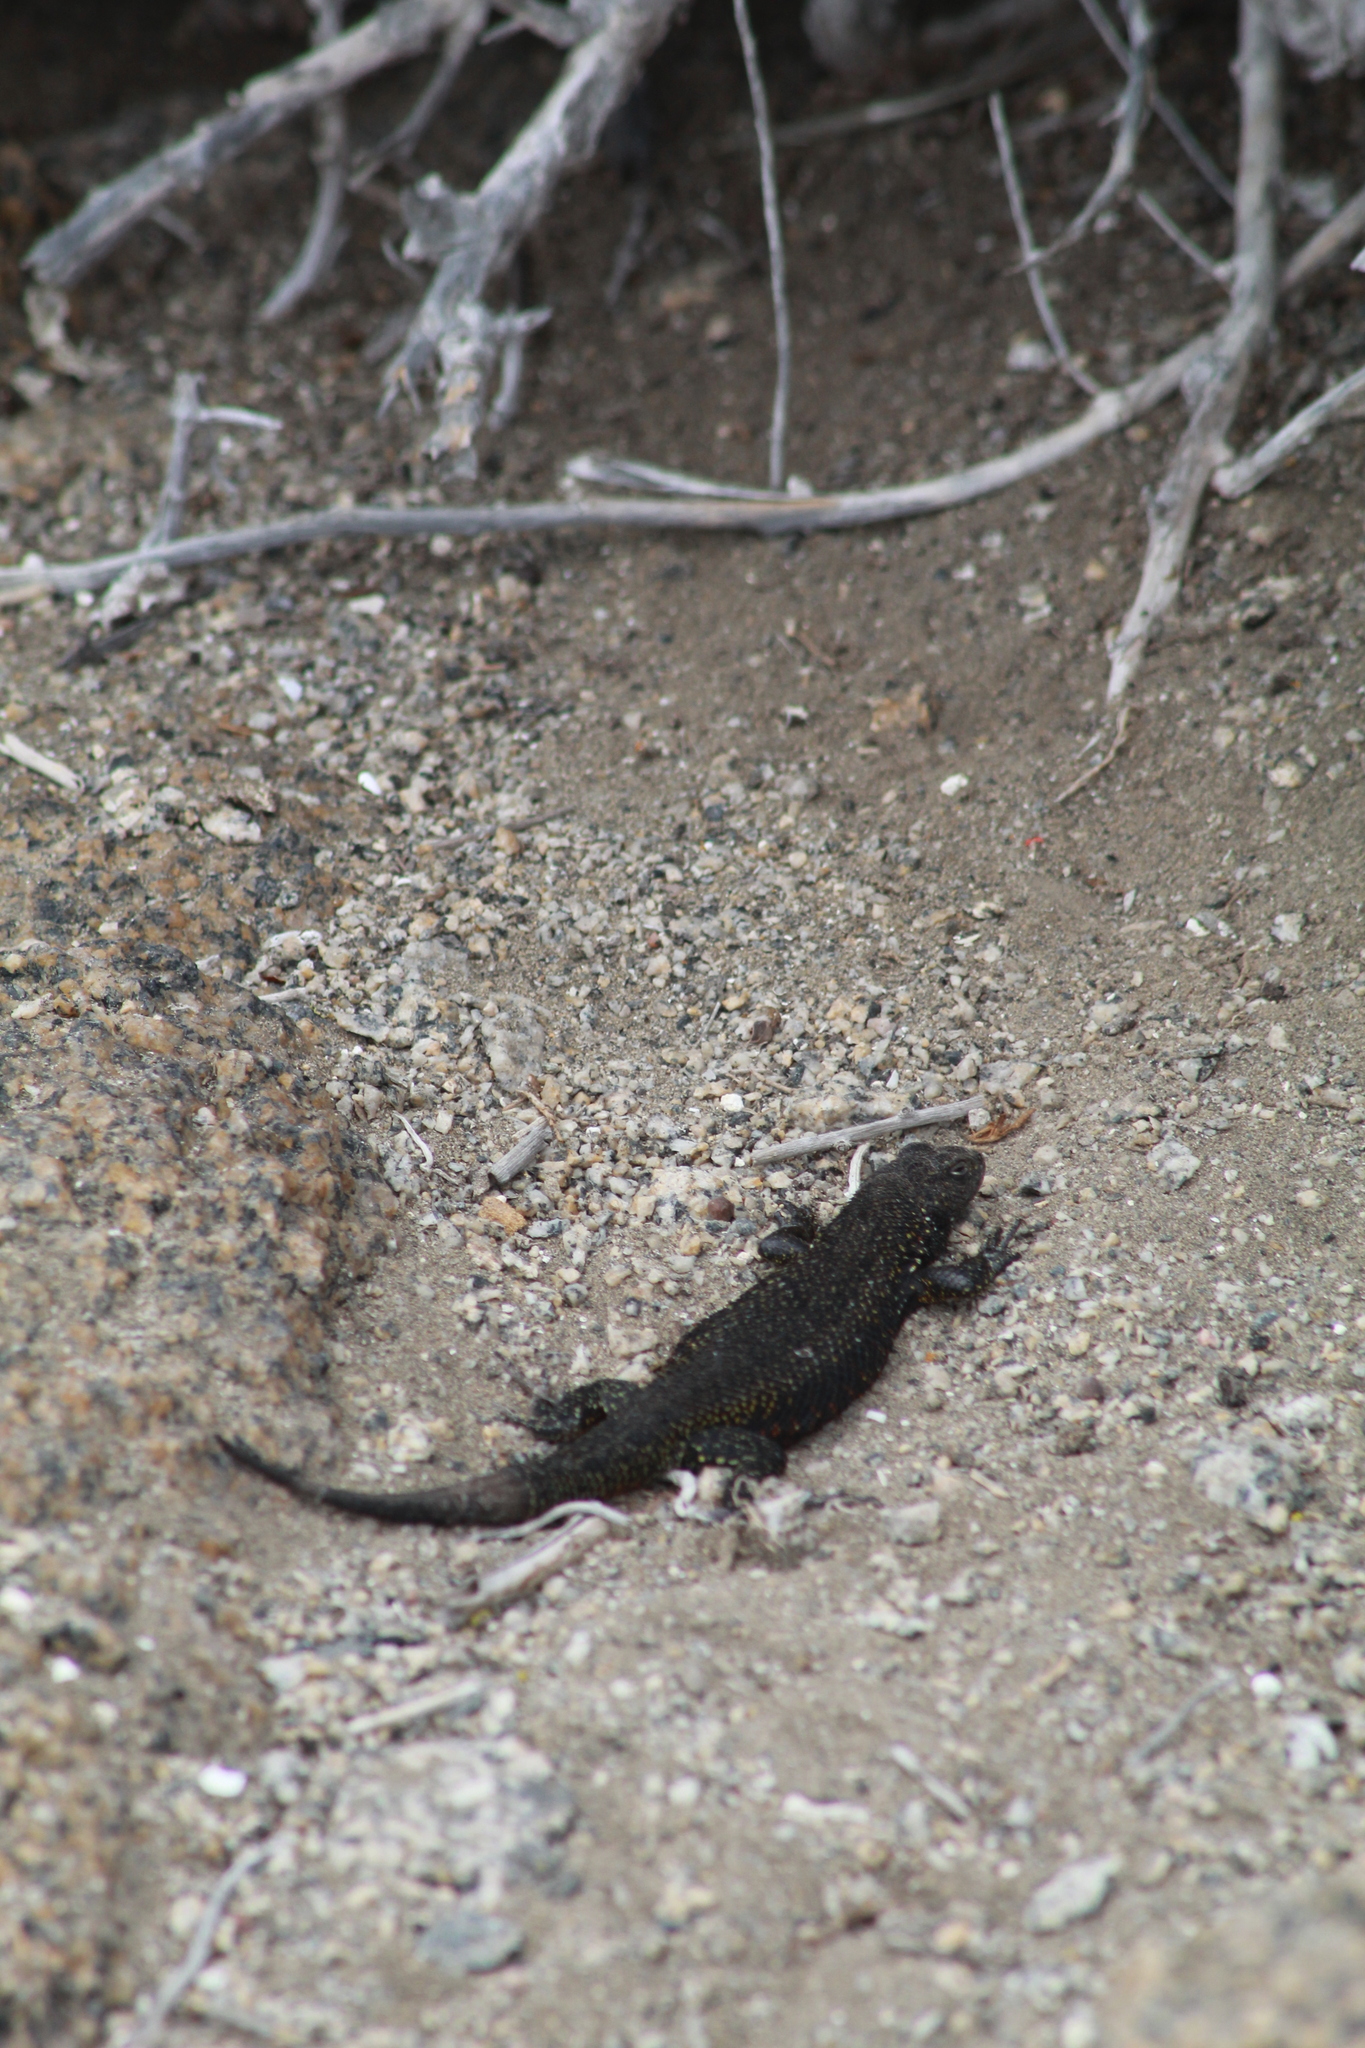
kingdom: Animalia
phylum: Chordata
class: Squamata
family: Liolaemidae
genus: Liolaemus
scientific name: Liolaemus silvai
